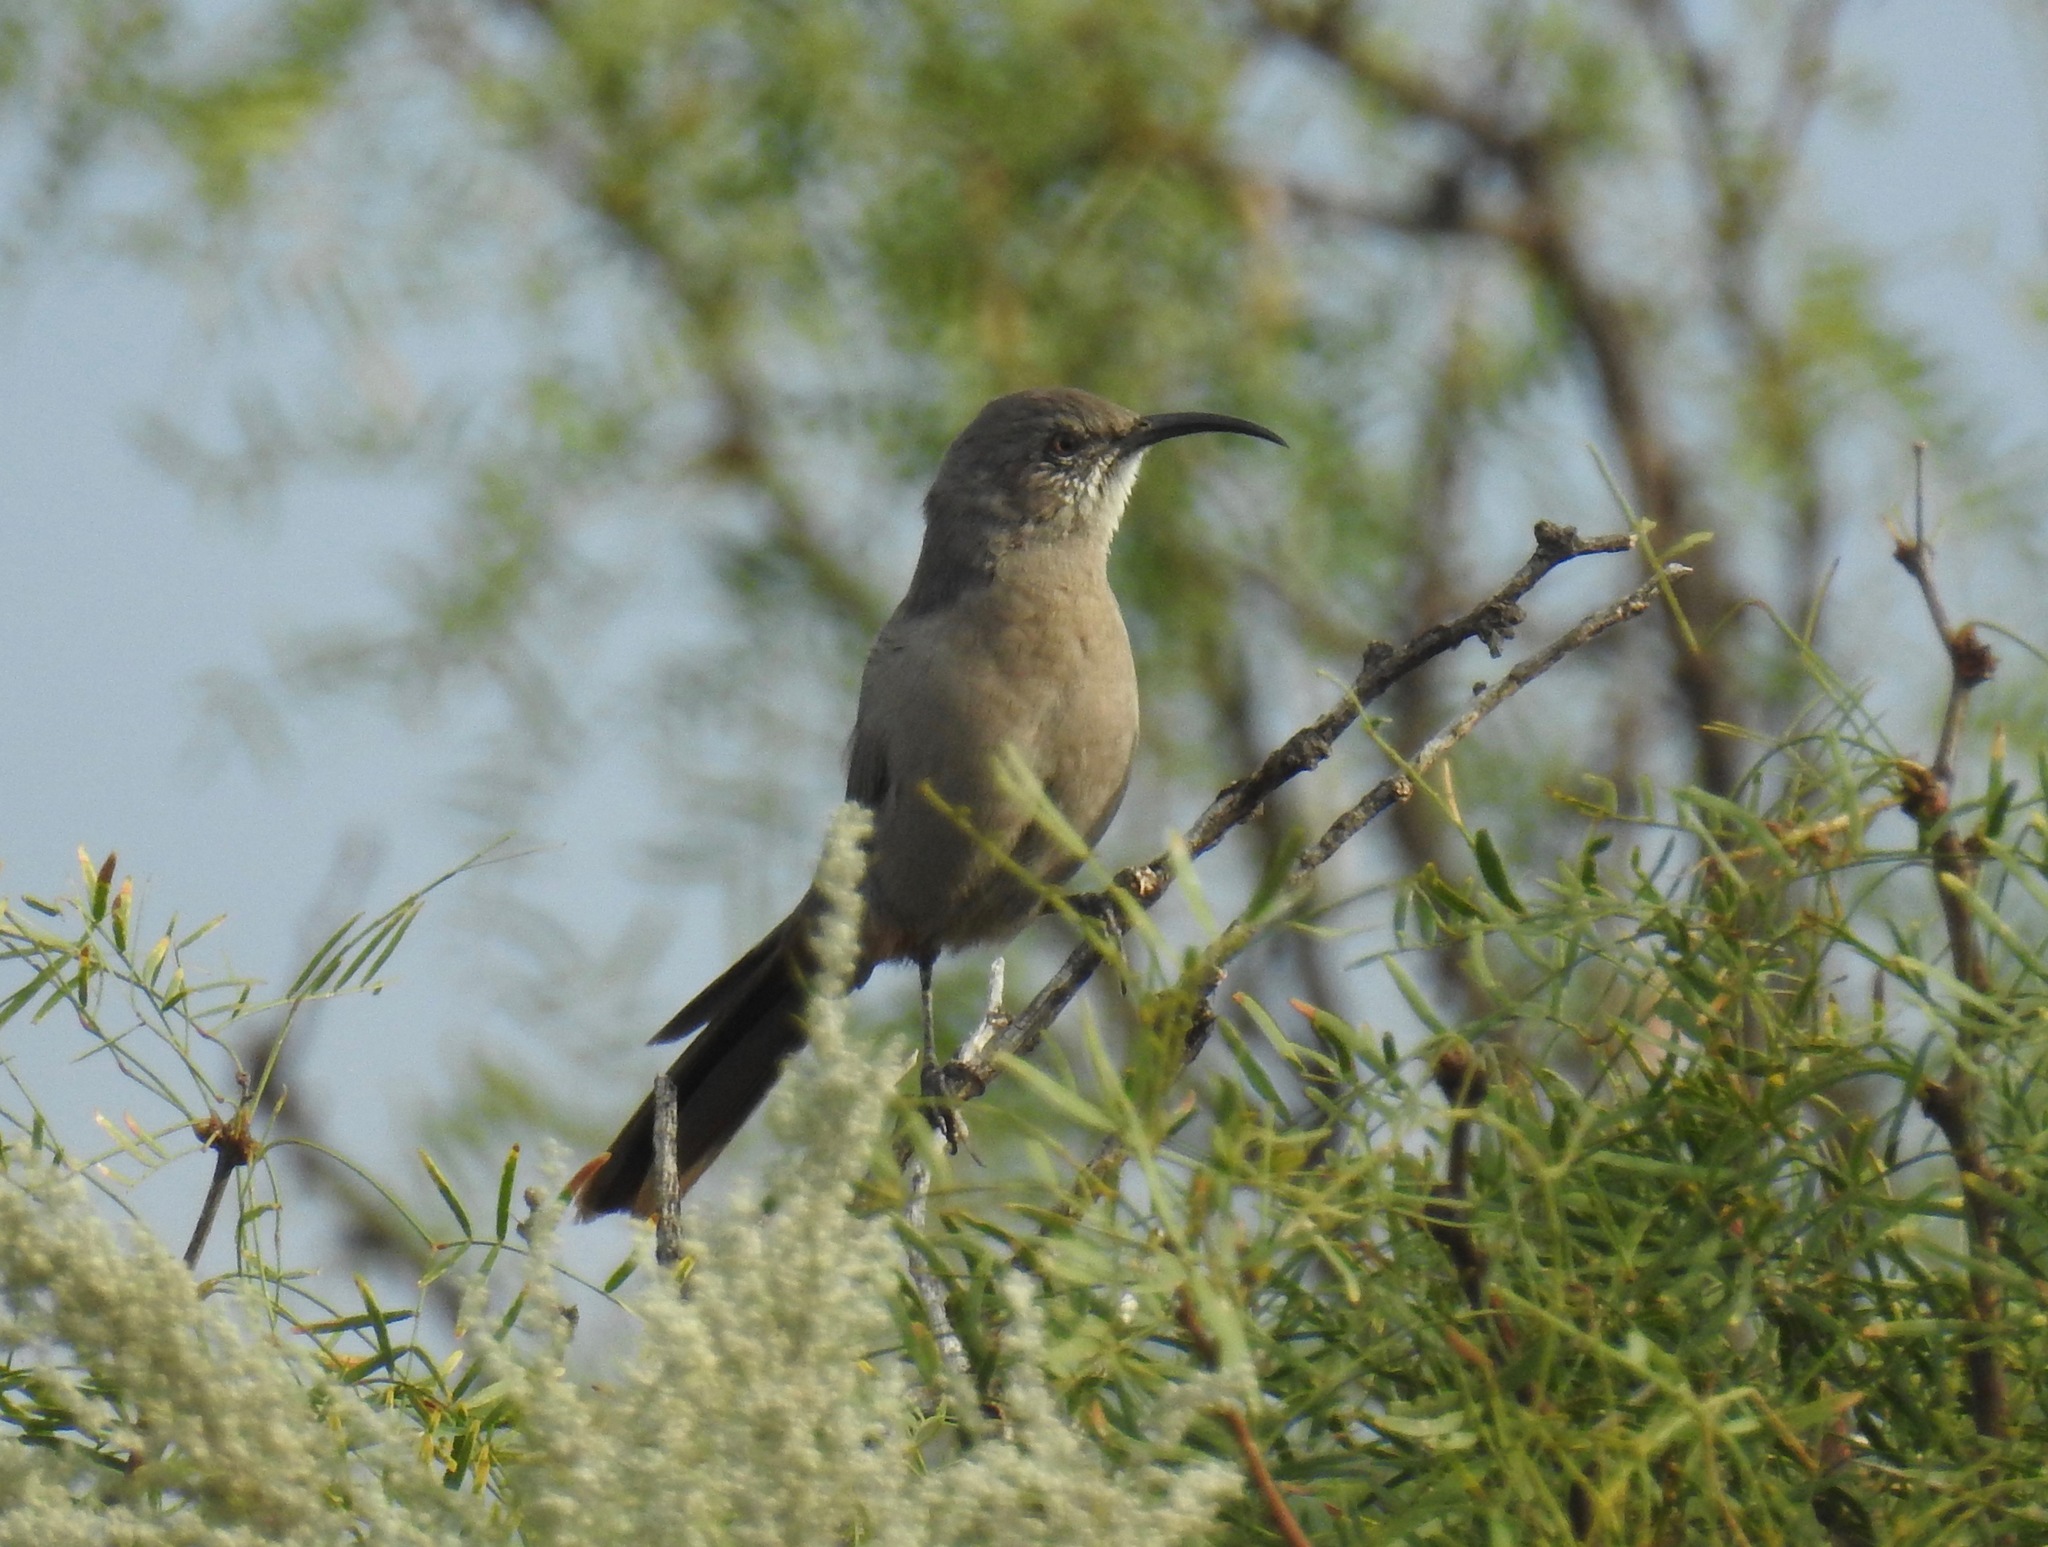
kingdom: Animalia
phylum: Chordata
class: Aves
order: Passeriformes
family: Mimidae
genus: Toxostoma
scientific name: Toxostoma crissale
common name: Crissal thrasher
